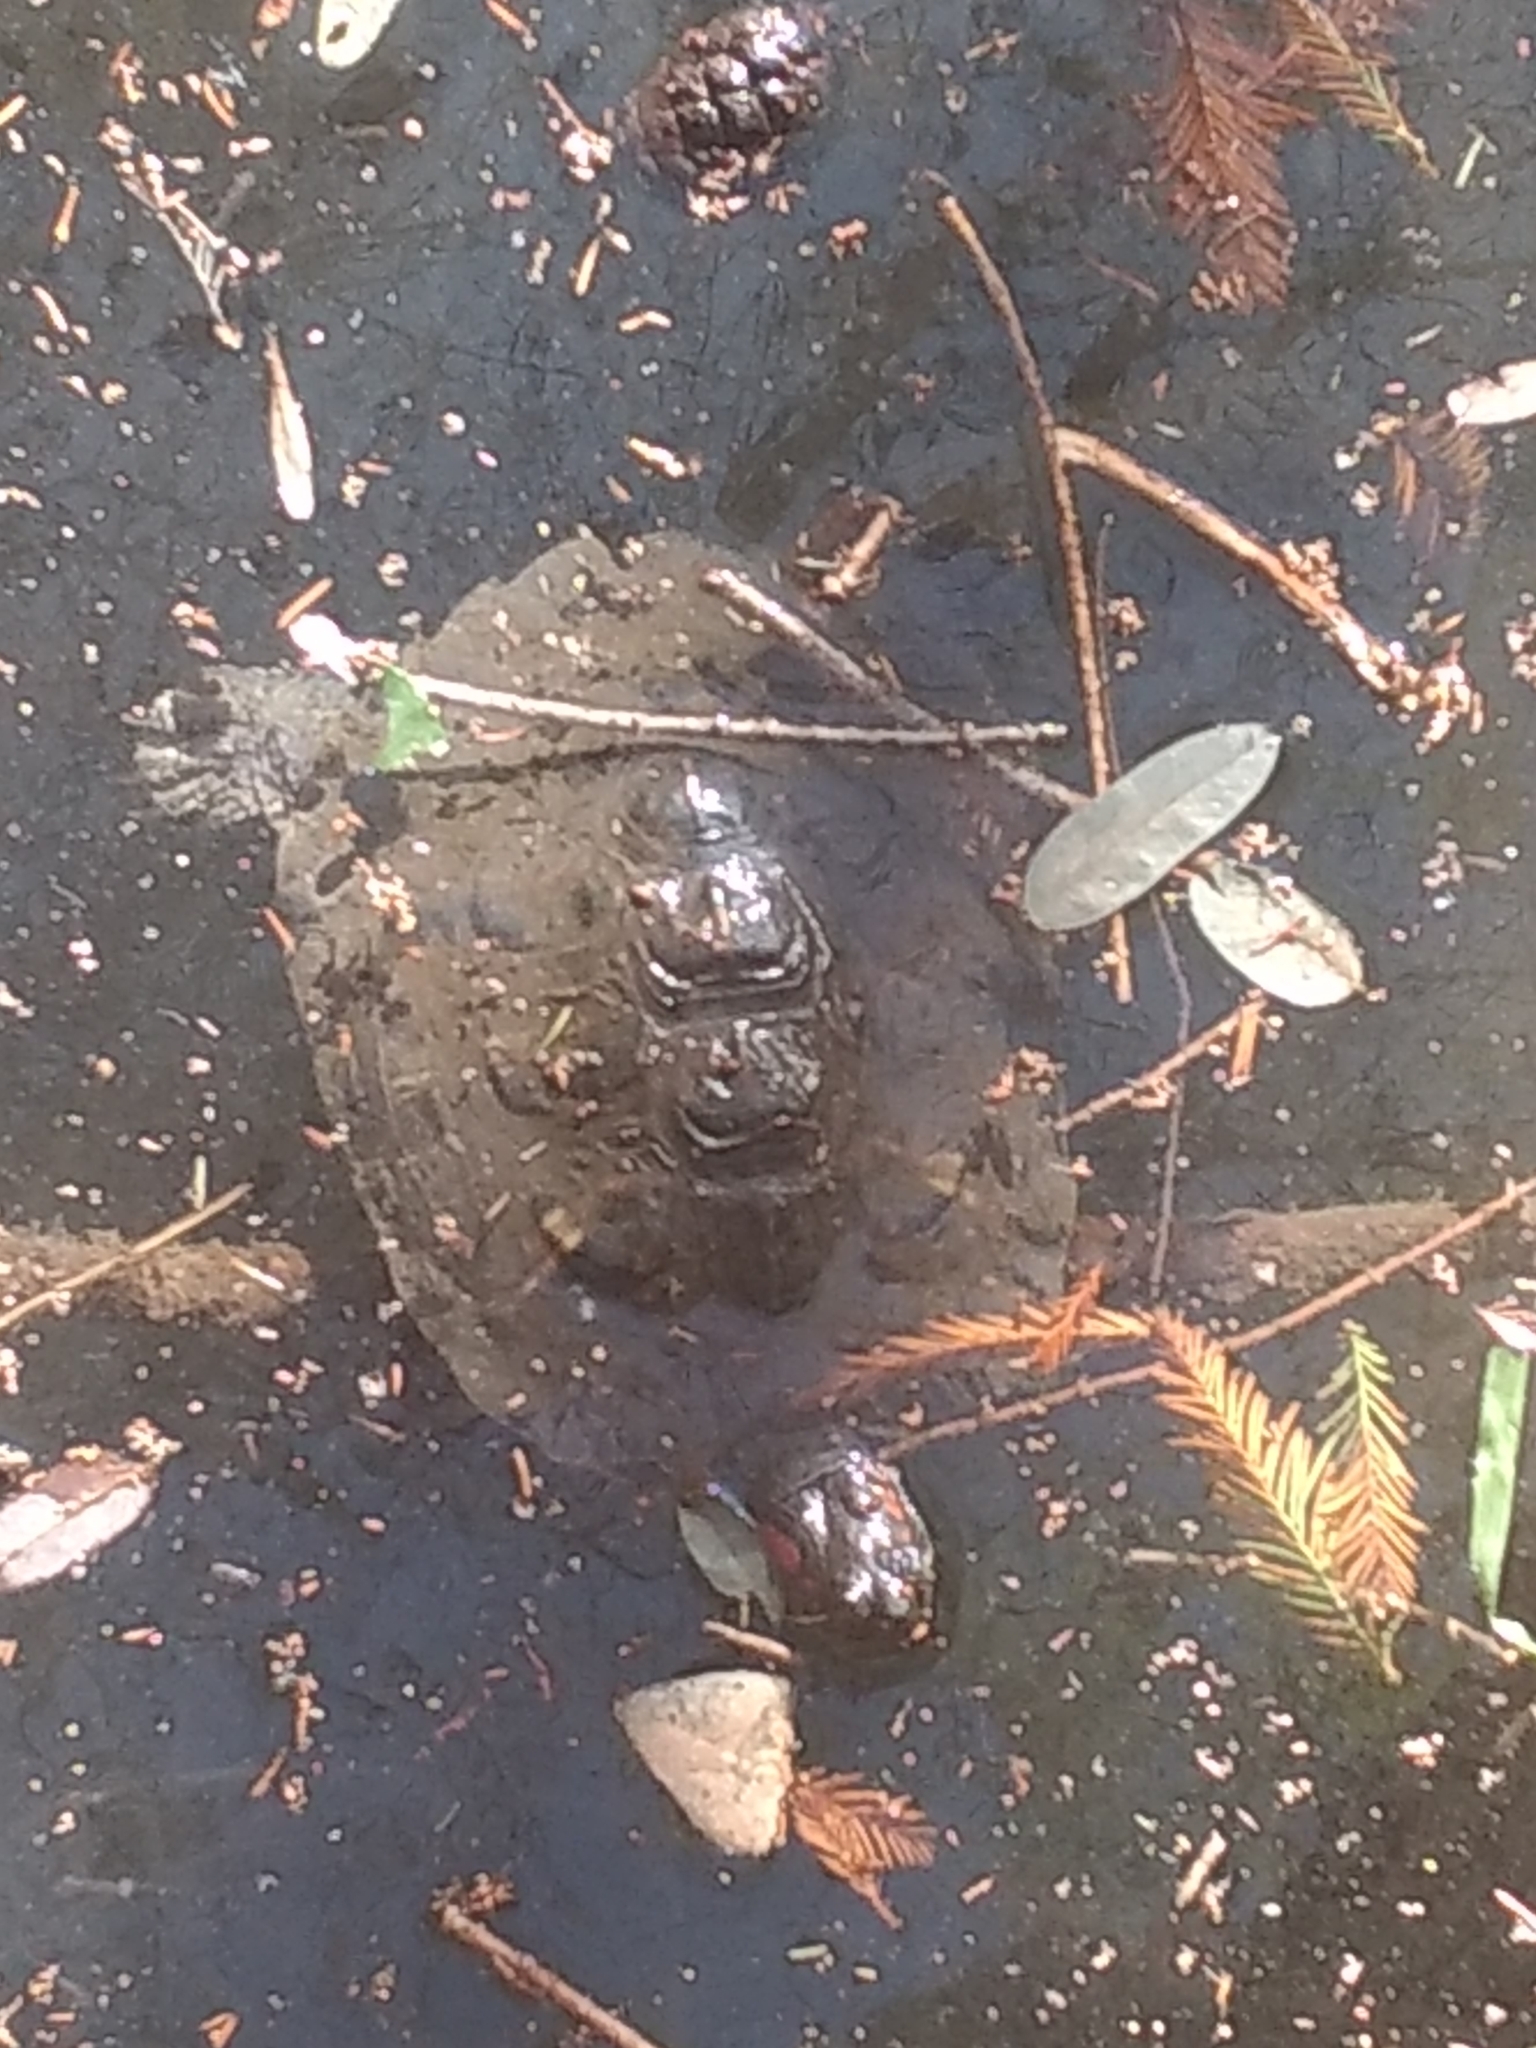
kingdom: Animalia
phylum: Chordata
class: Testudines
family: Emydidae
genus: Trachemys
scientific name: Trachemys scripta
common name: Slider
